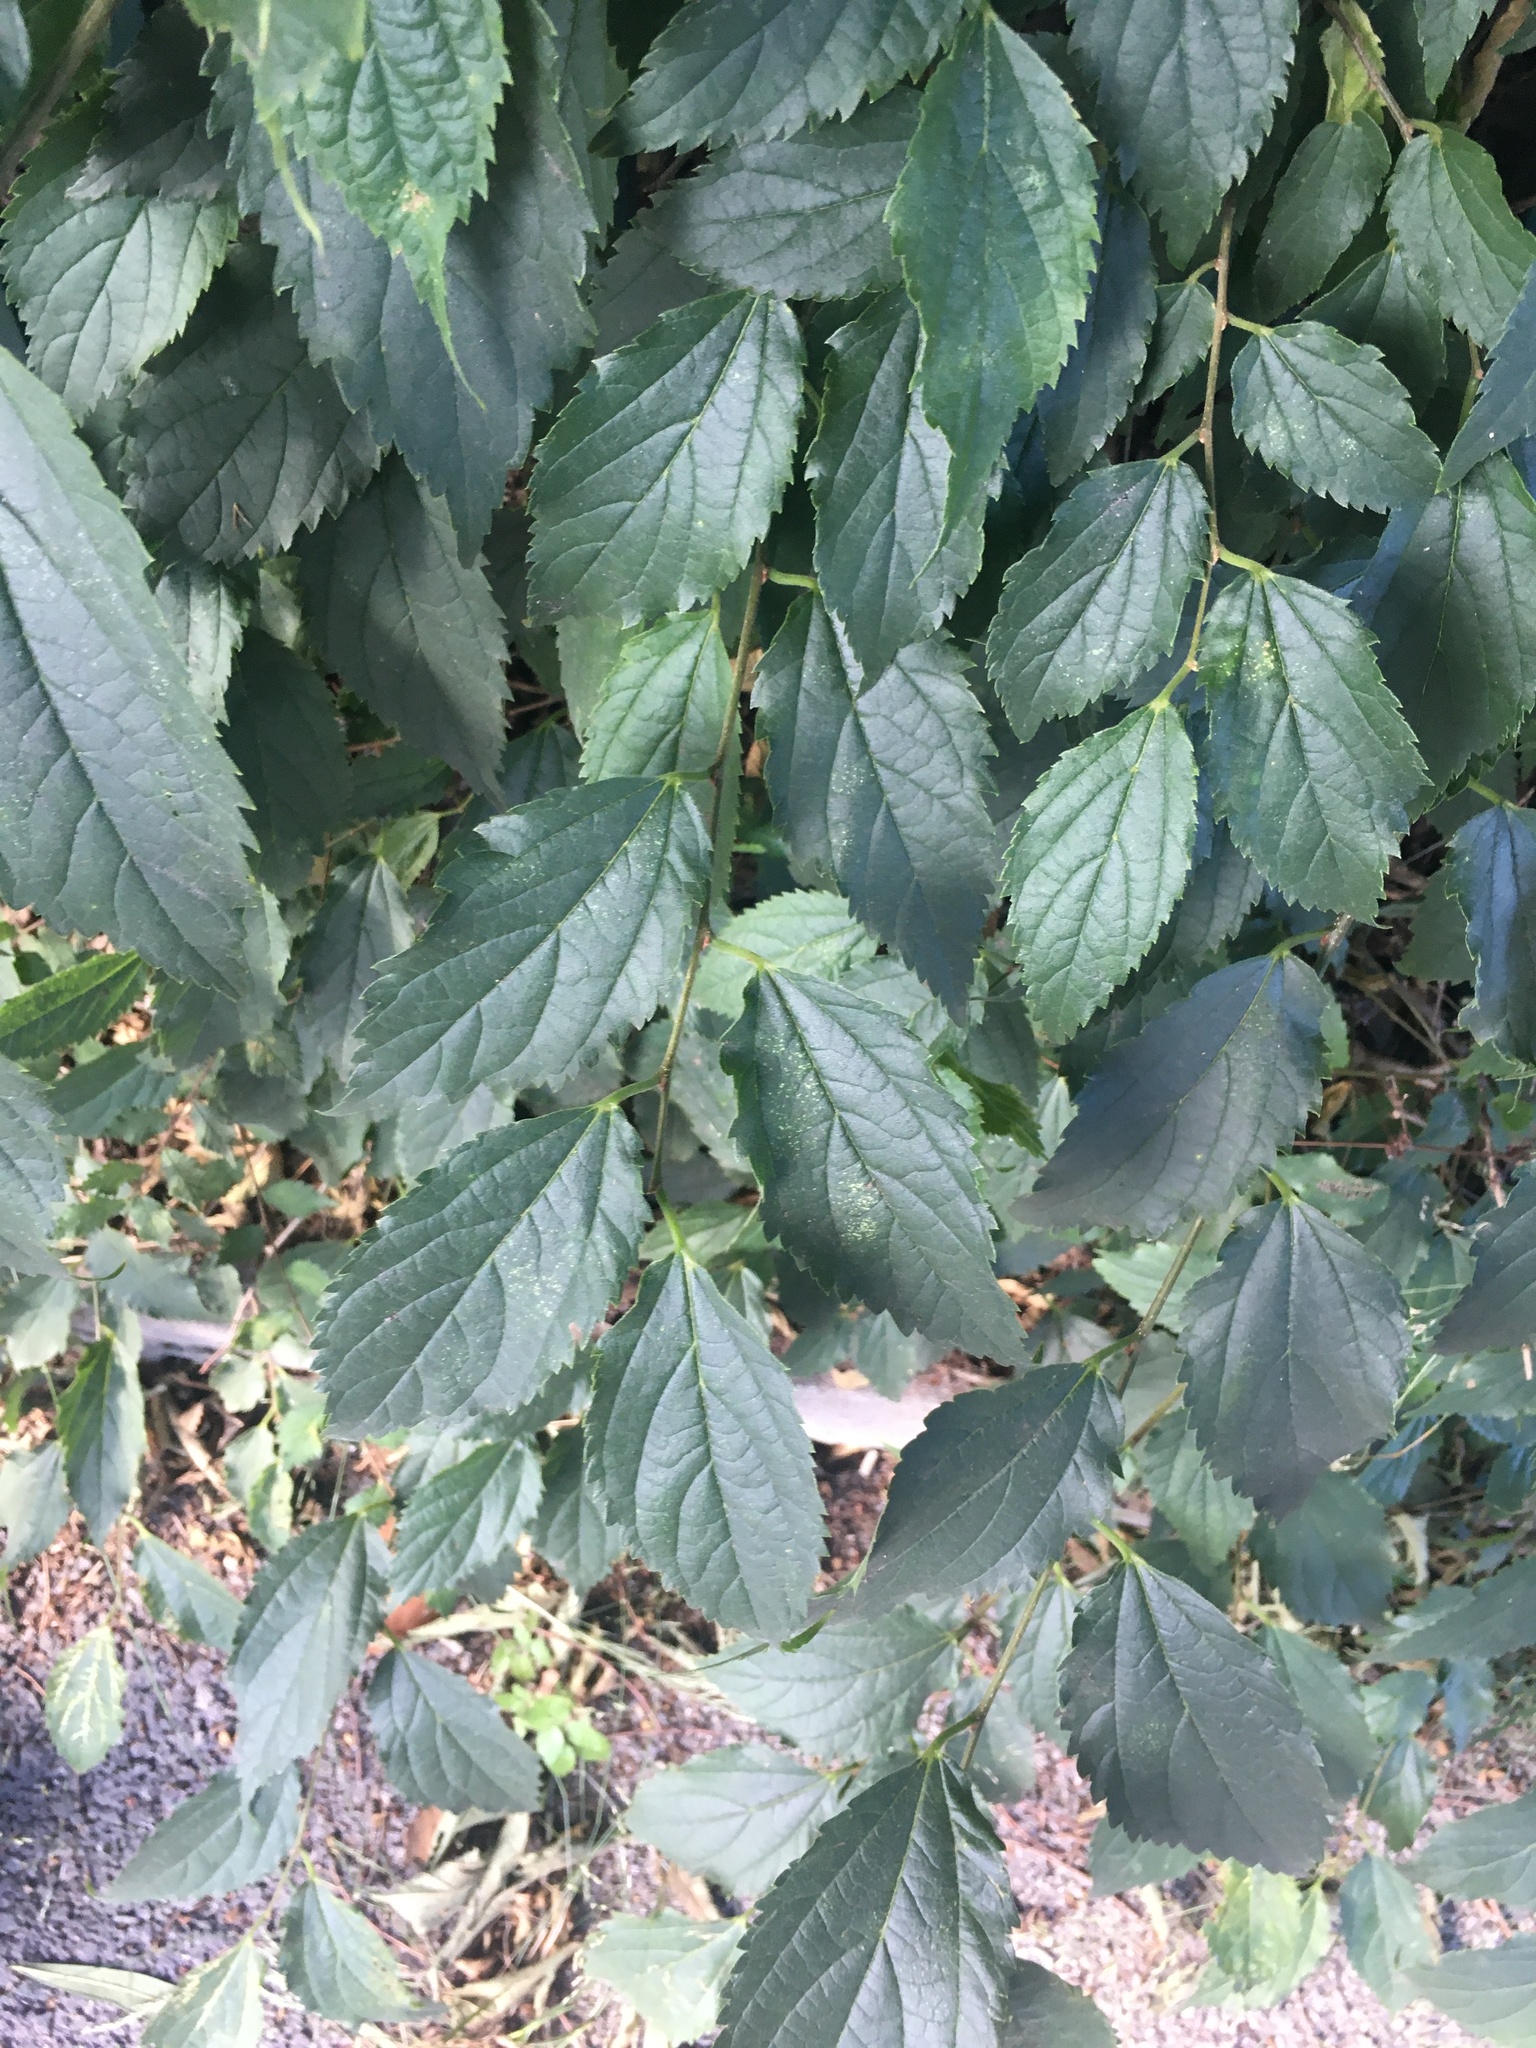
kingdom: Plantae
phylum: Tracheophyta
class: Magnoliopsida
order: Rosales
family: Cannabaceae
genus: Celtis
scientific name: Celtis australis
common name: European hackberry
